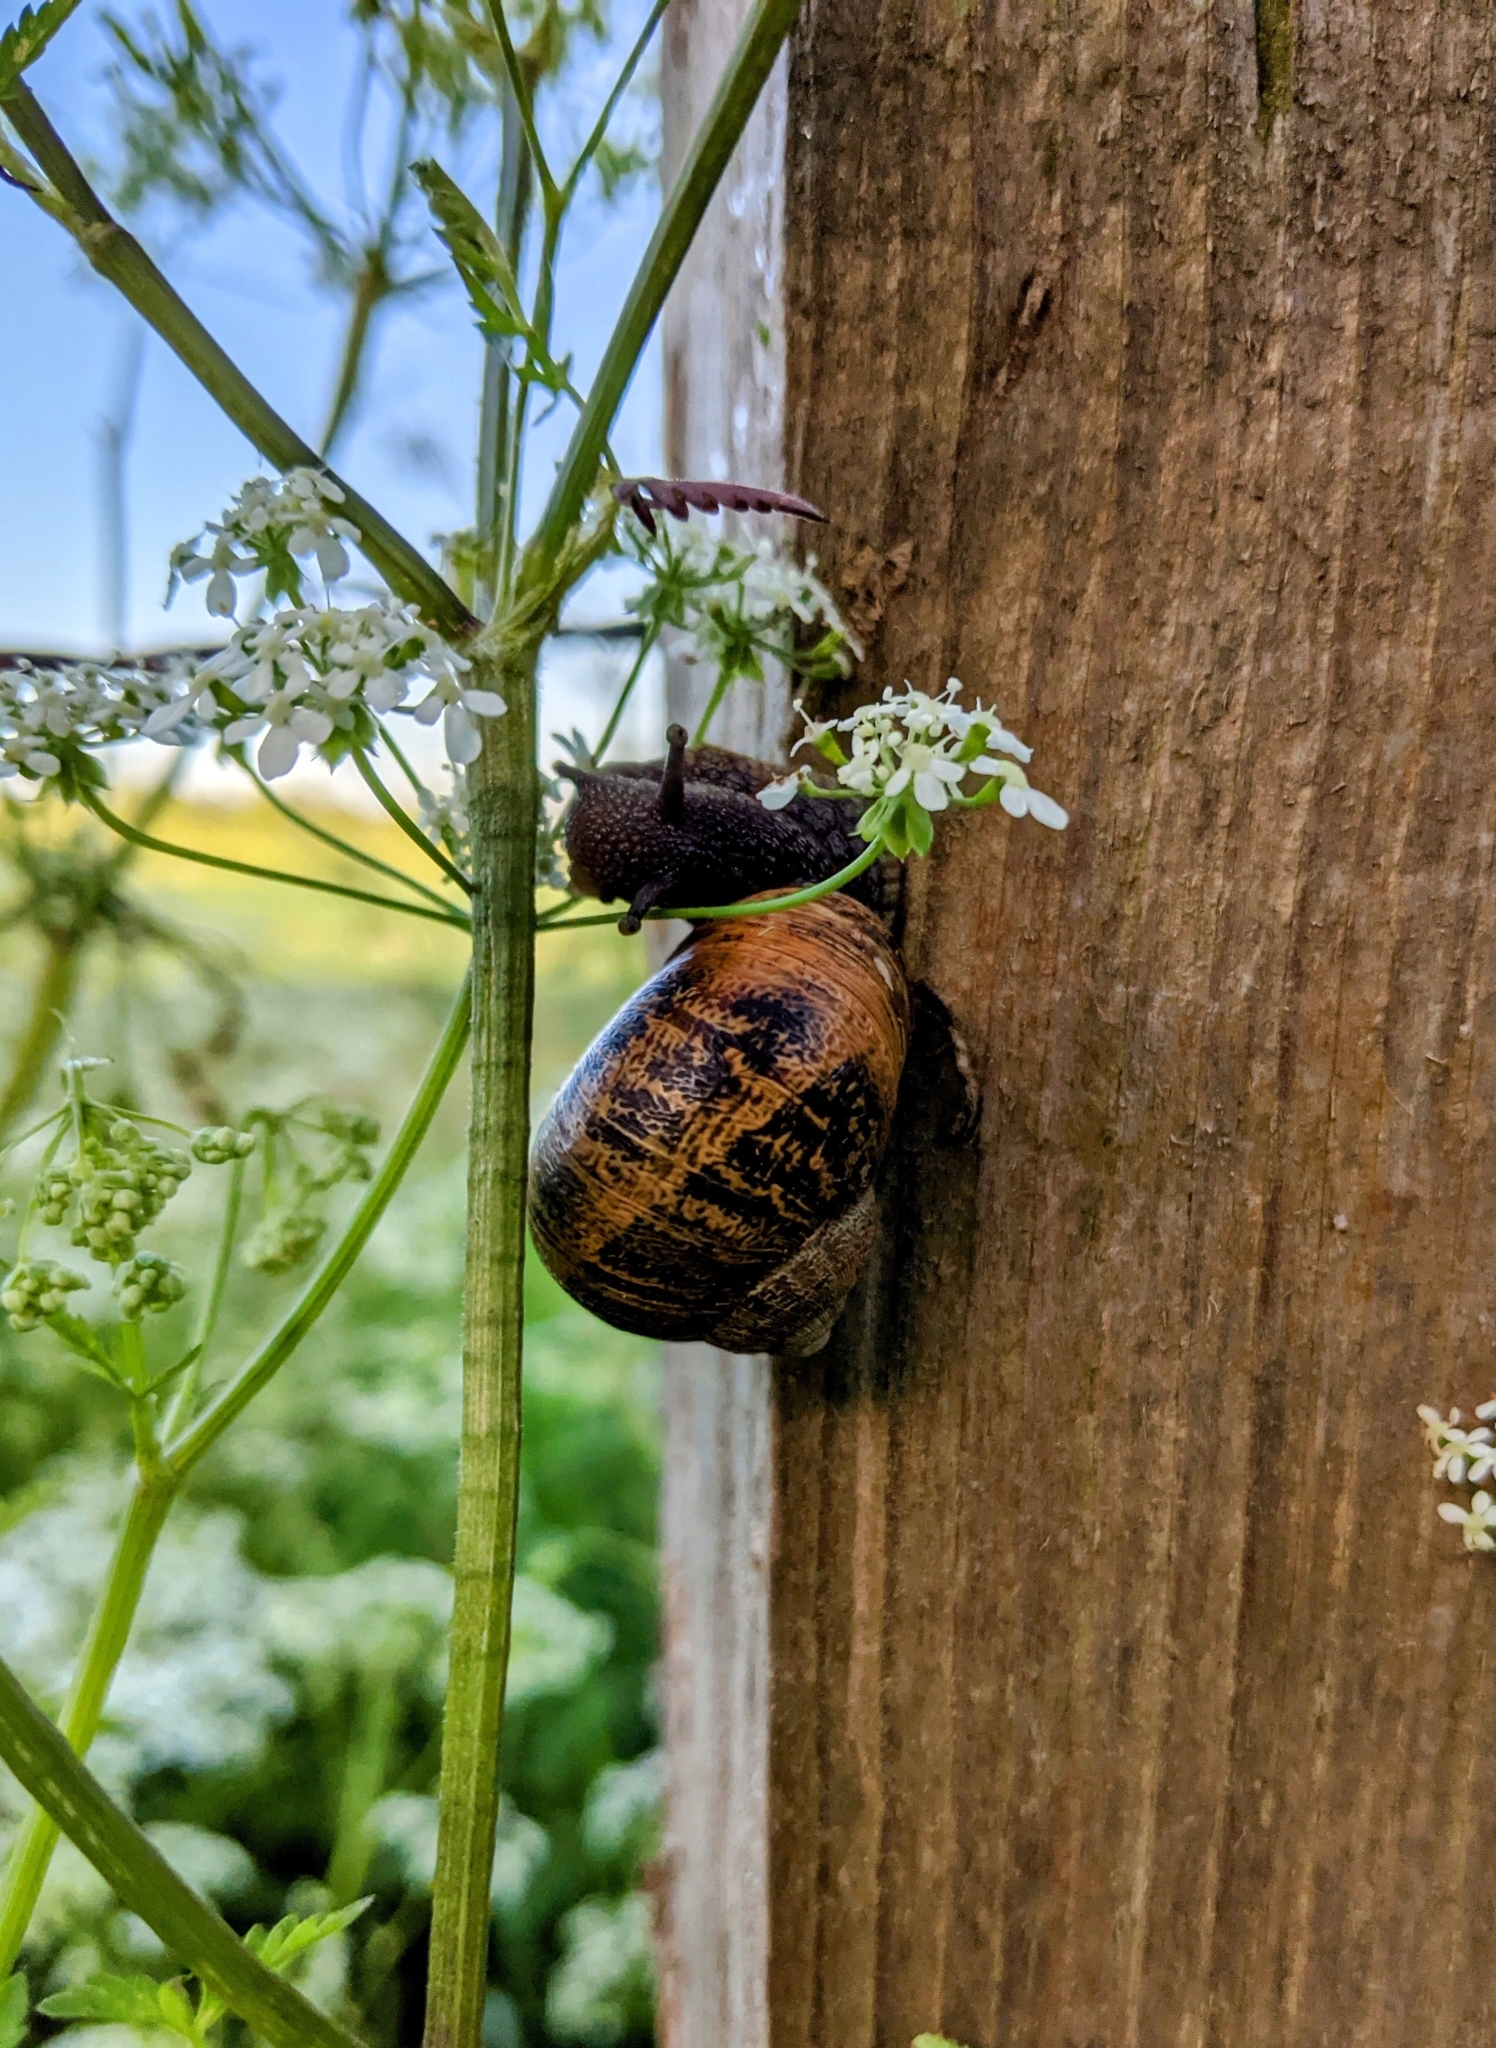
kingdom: Animalia
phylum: Mollusca
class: Gastropoda
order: Stylommatophora
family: Helicidae
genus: Cornu
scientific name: Cornu aspersum
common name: Brown garden snail
